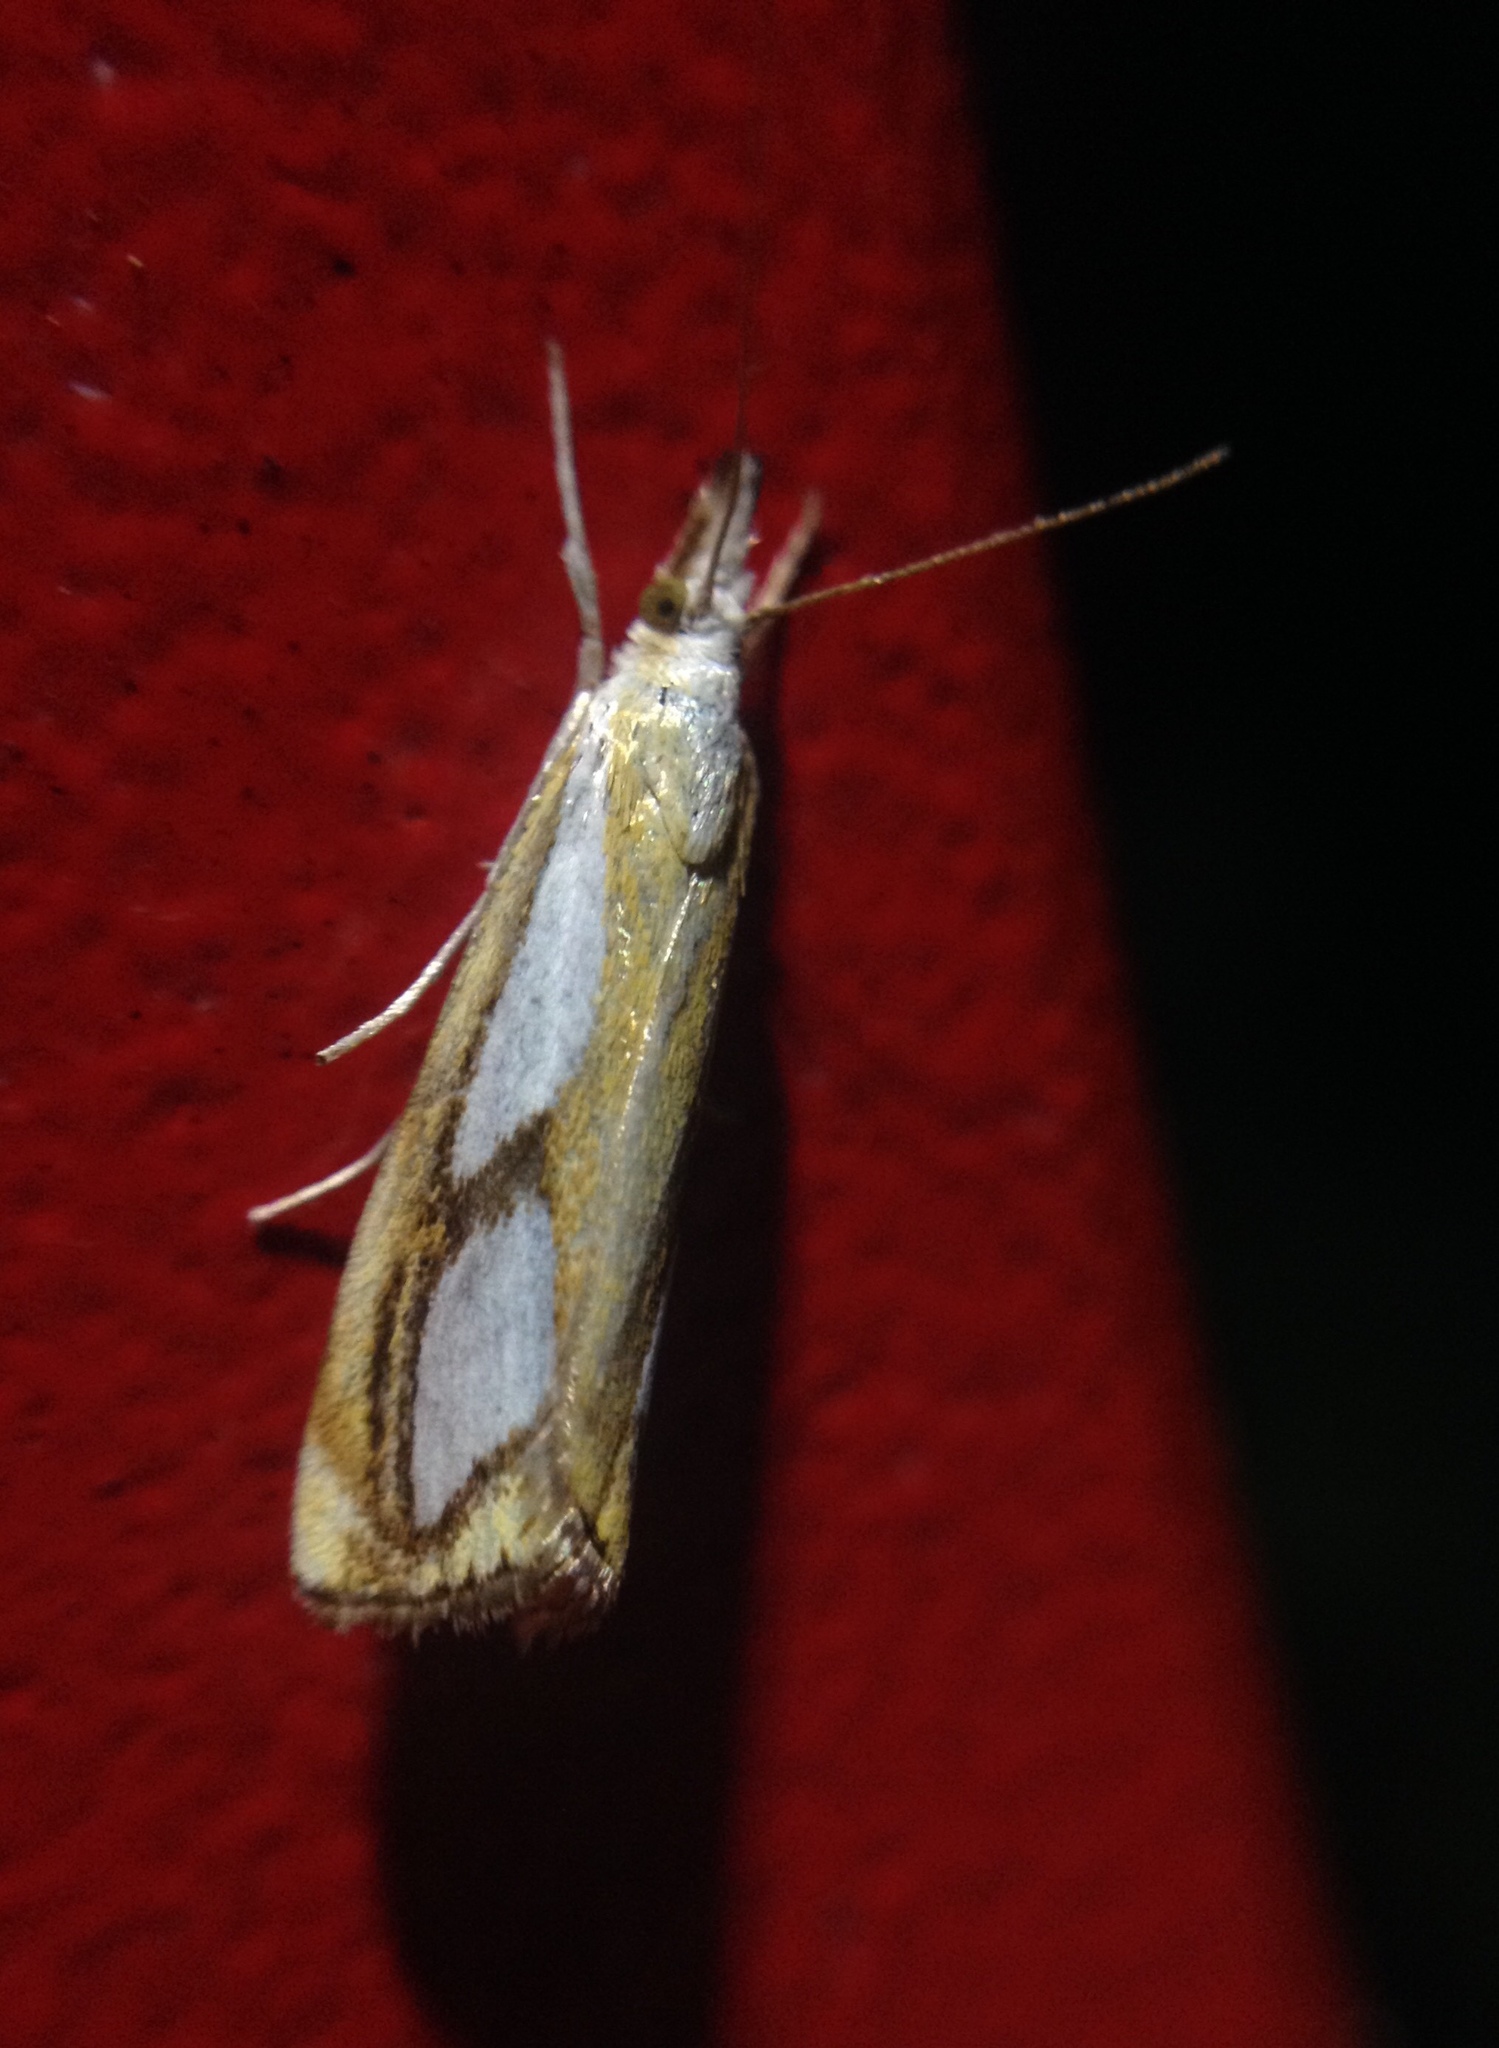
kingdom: Animalia
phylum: Arthropoda
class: Insecta
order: Lepidoptera
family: Crambidae
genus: Catoptria
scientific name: Catoptria pinella
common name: Pearl grass-veneer
